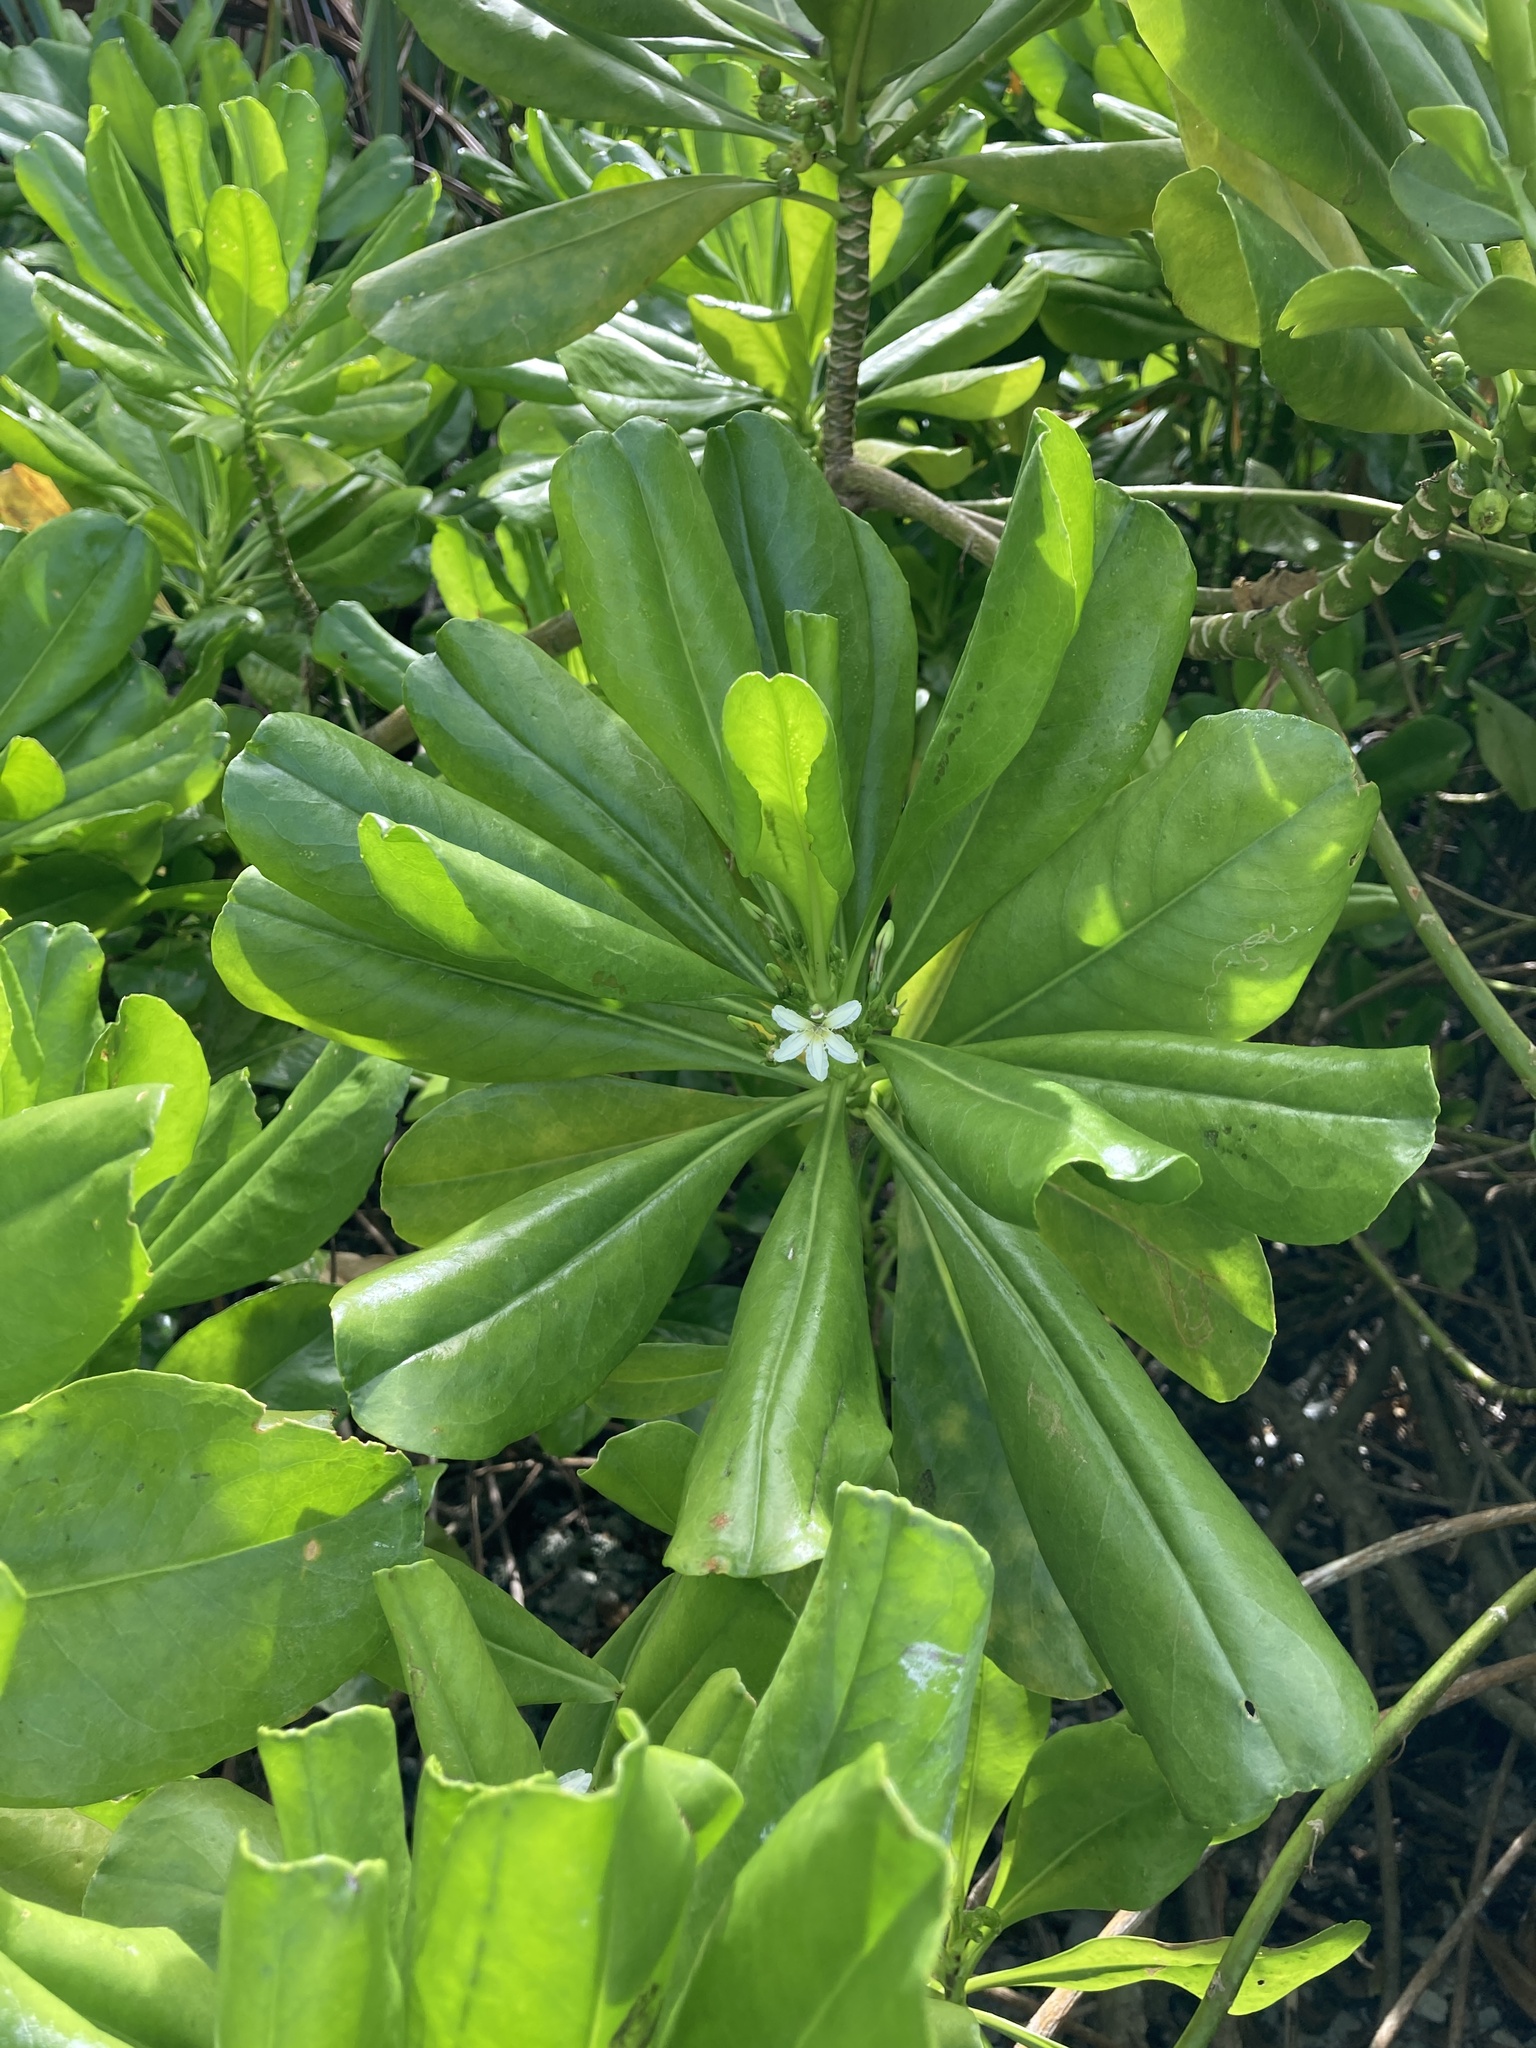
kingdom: Plantae
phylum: Tracheophyta
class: Magnoliopsida
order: Asterales
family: Goodeniaceae
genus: Scaevola
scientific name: Scaevola taccada
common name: Sea lettucetree
